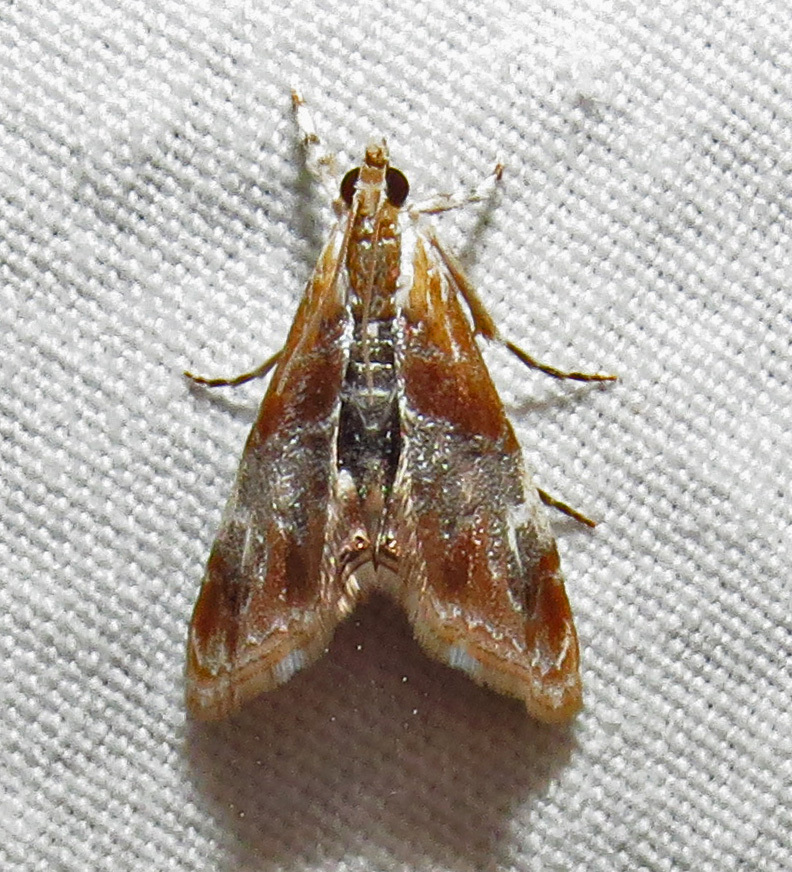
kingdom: Animalia
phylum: Arthropoda
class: Insecta
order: Lepidoptera
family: Crambidae
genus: Dicymolomia
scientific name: Dicymolomia julianalis
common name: Julia's dicymolomia moth
